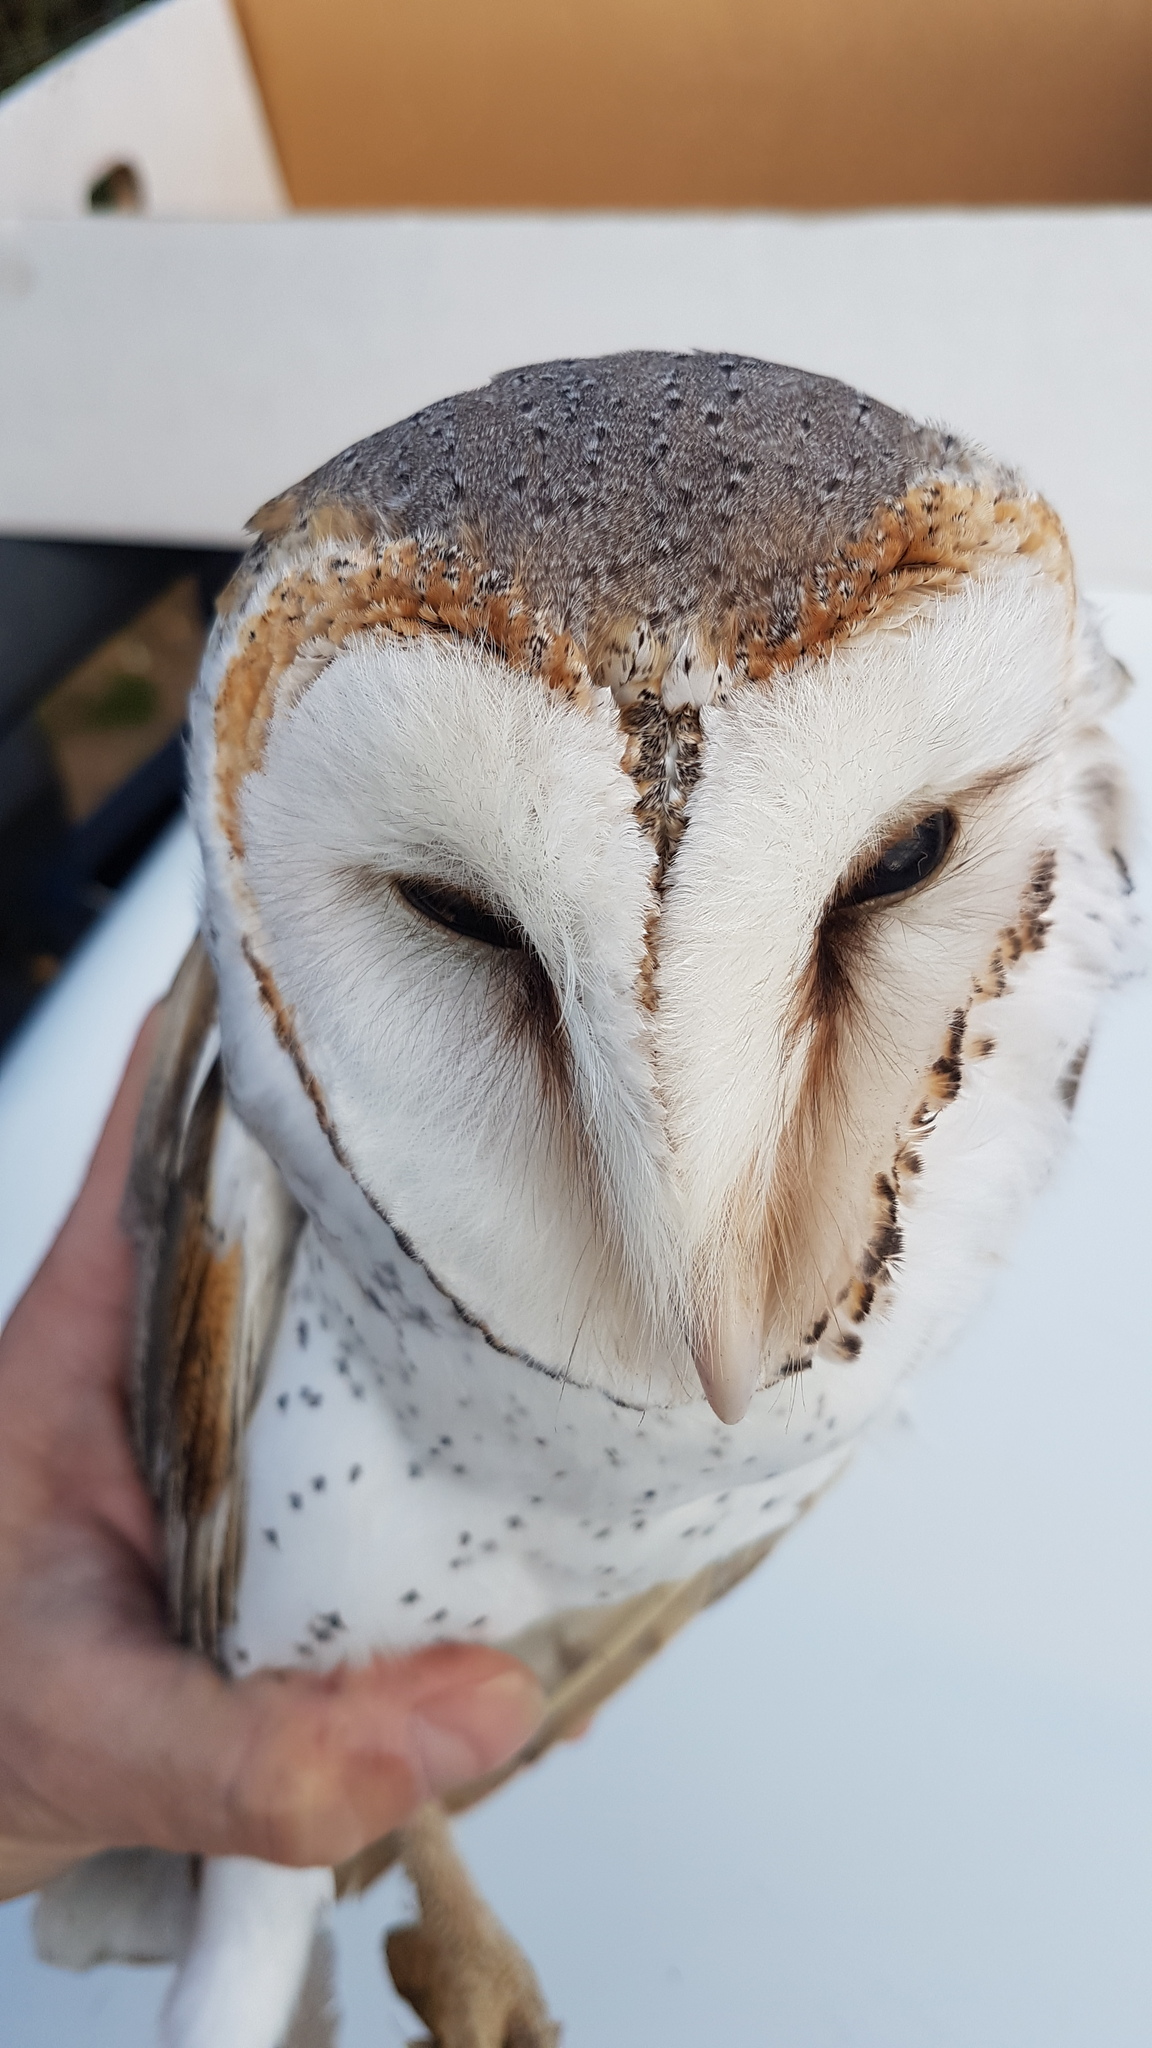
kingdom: Animalia
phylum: Chordata
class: Aves
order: Strigiformes
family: Tytonidae
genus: Tyto
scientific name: Tyto alba
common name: Barn owl
